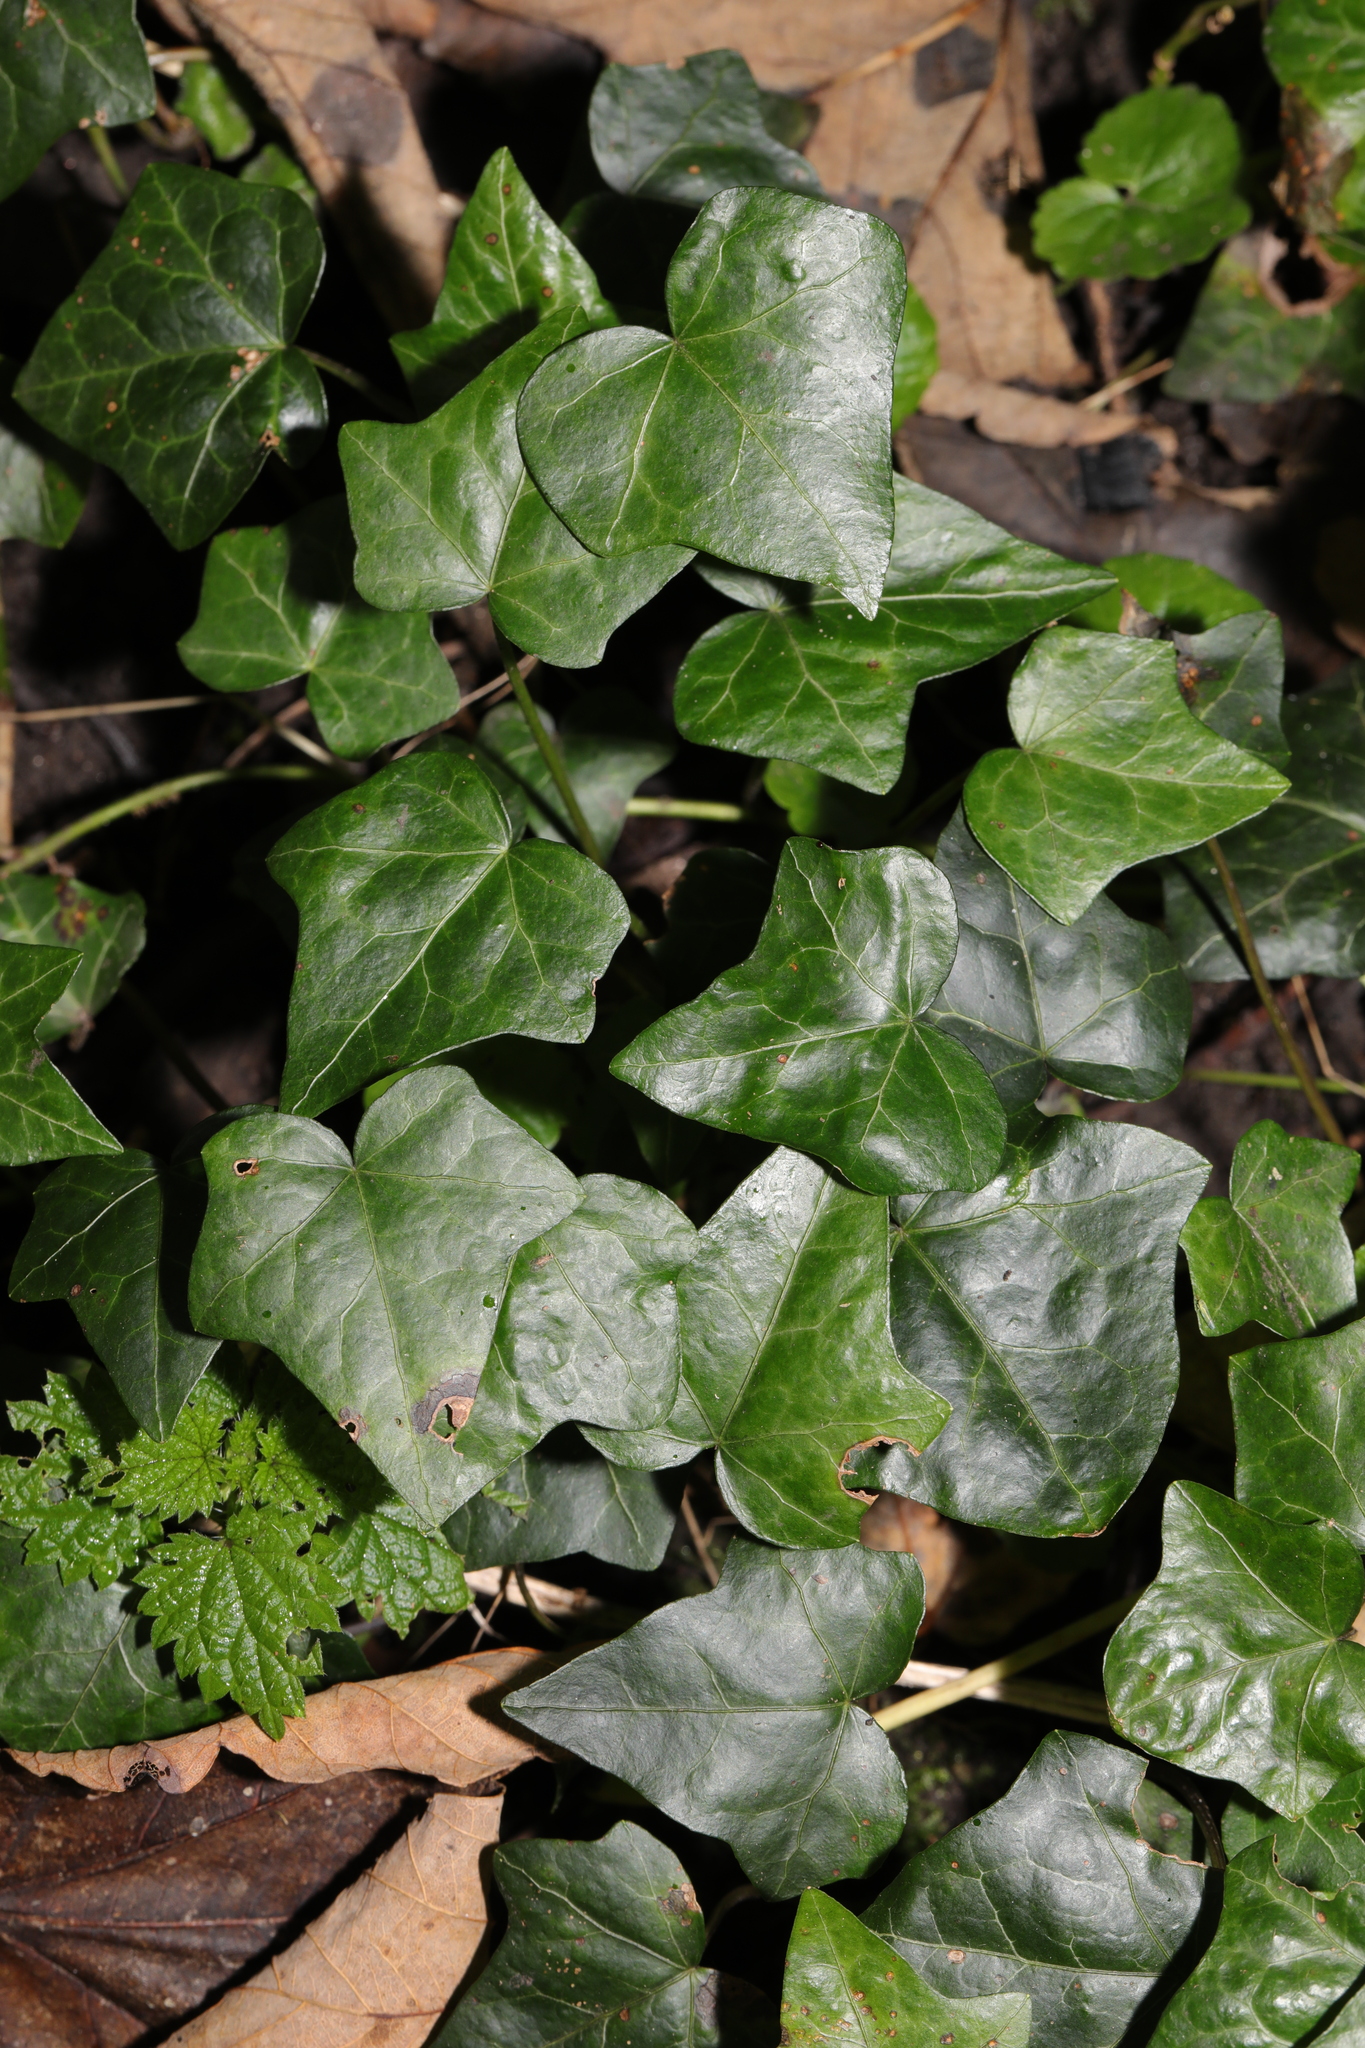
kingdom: Plantae
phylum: Tracheophyta
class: Magnoliopsida
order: Apiales
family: Araliaceae
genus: Hedera
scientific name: Hedera helix
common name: Ivy
